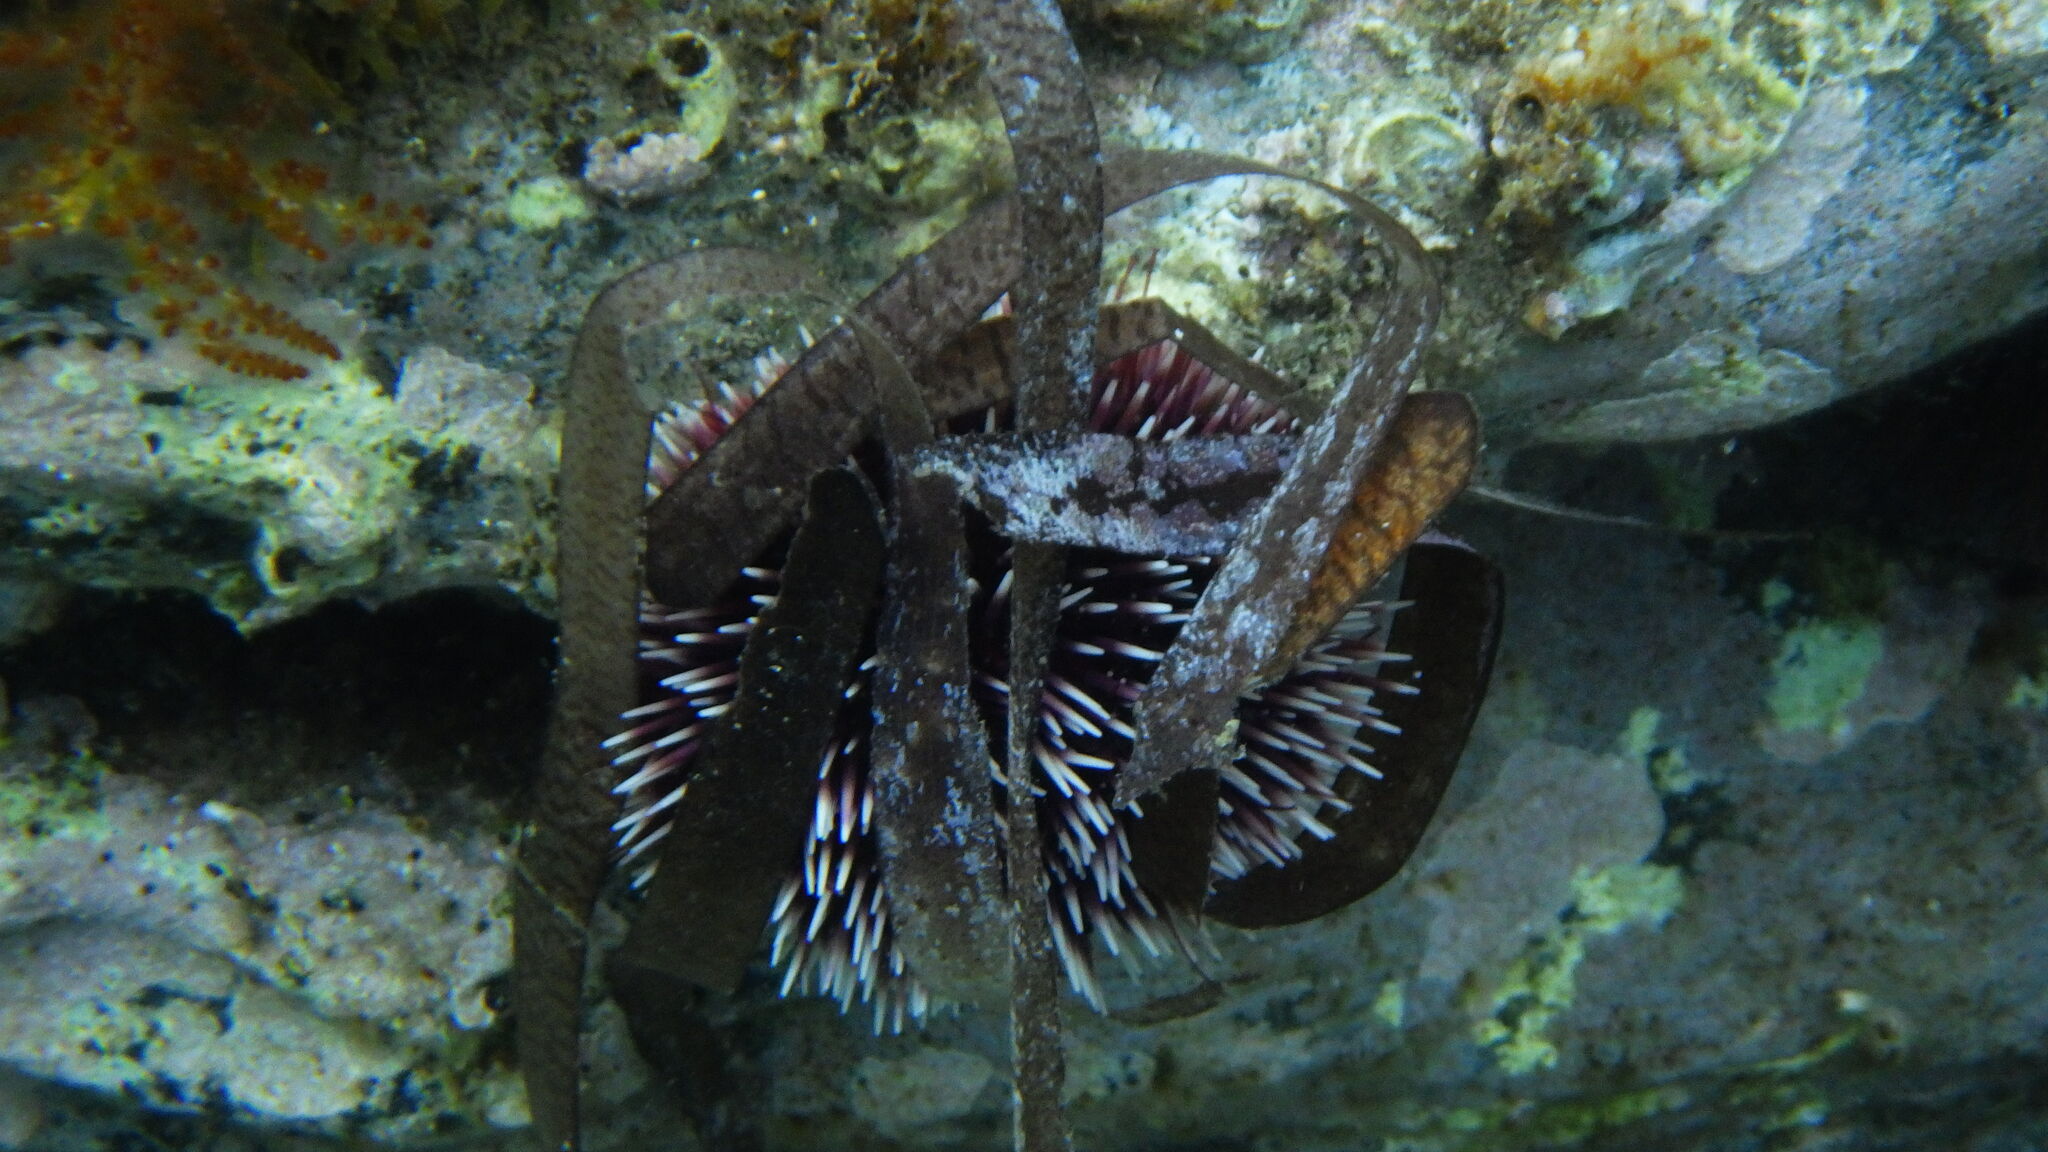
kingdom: Animalia
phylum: Echinodermata
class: Echinoidea
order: Camarodonta
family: Toxopneustidae
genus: Sphaerechinus
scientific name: Sphaerechinus granularis
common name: Violet sea urchin
